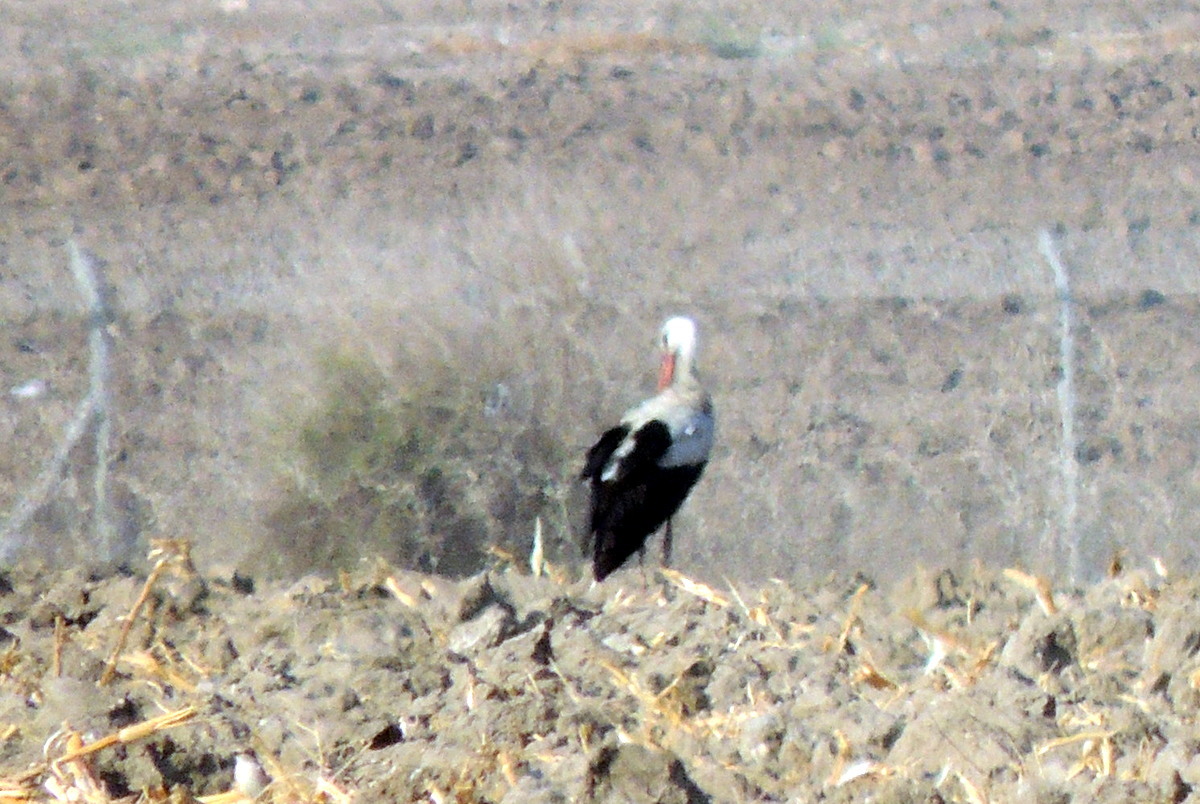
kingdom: Animalia
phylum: Chordata
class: Aves
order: Ciconiiformes
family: Ciconiidae
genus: Ciconia
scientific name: Ciconia ciconia
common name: White stork
